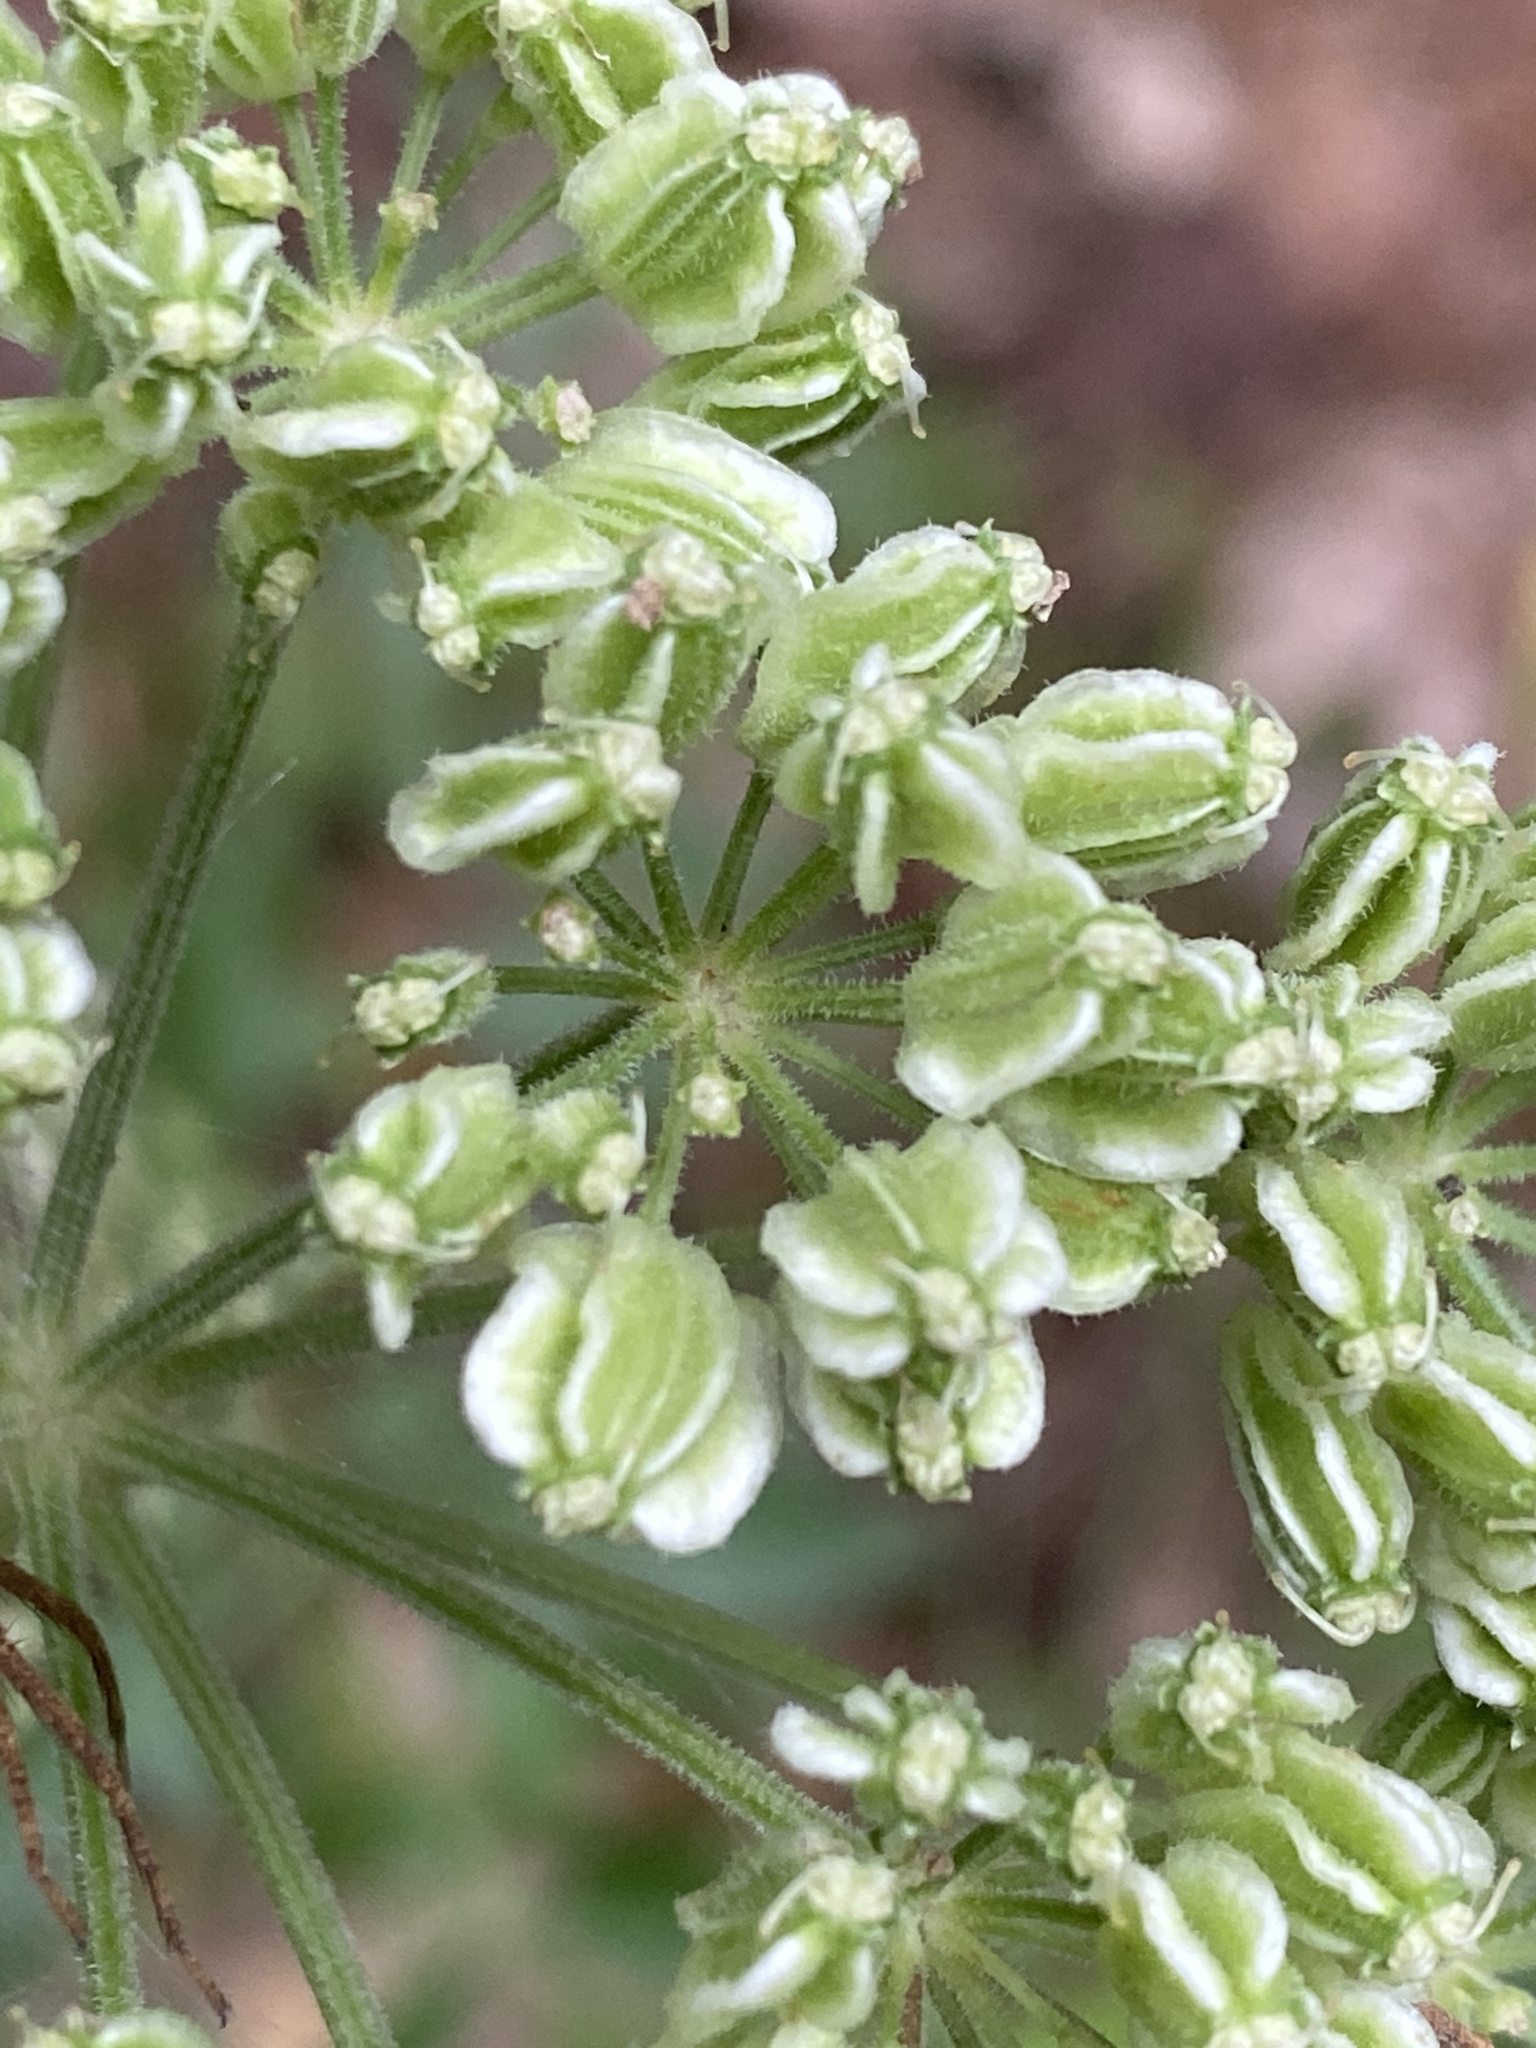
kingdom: Plantae
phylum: Tracheophyta
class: Magnoliopsida
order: Apiales
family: Apiaceae
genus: Angelica
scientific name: Angelica venenosa
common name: Hairy angelica
